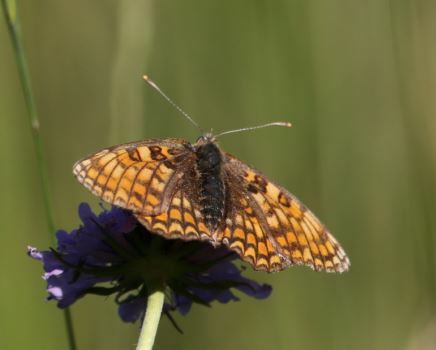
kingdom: Animalia
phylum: Arthropoda
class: Insecta
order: Lepidoptera
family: Nymphalidae
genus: Melitaea
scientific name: Melitaea phoebe
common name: Knapweed fritillary
